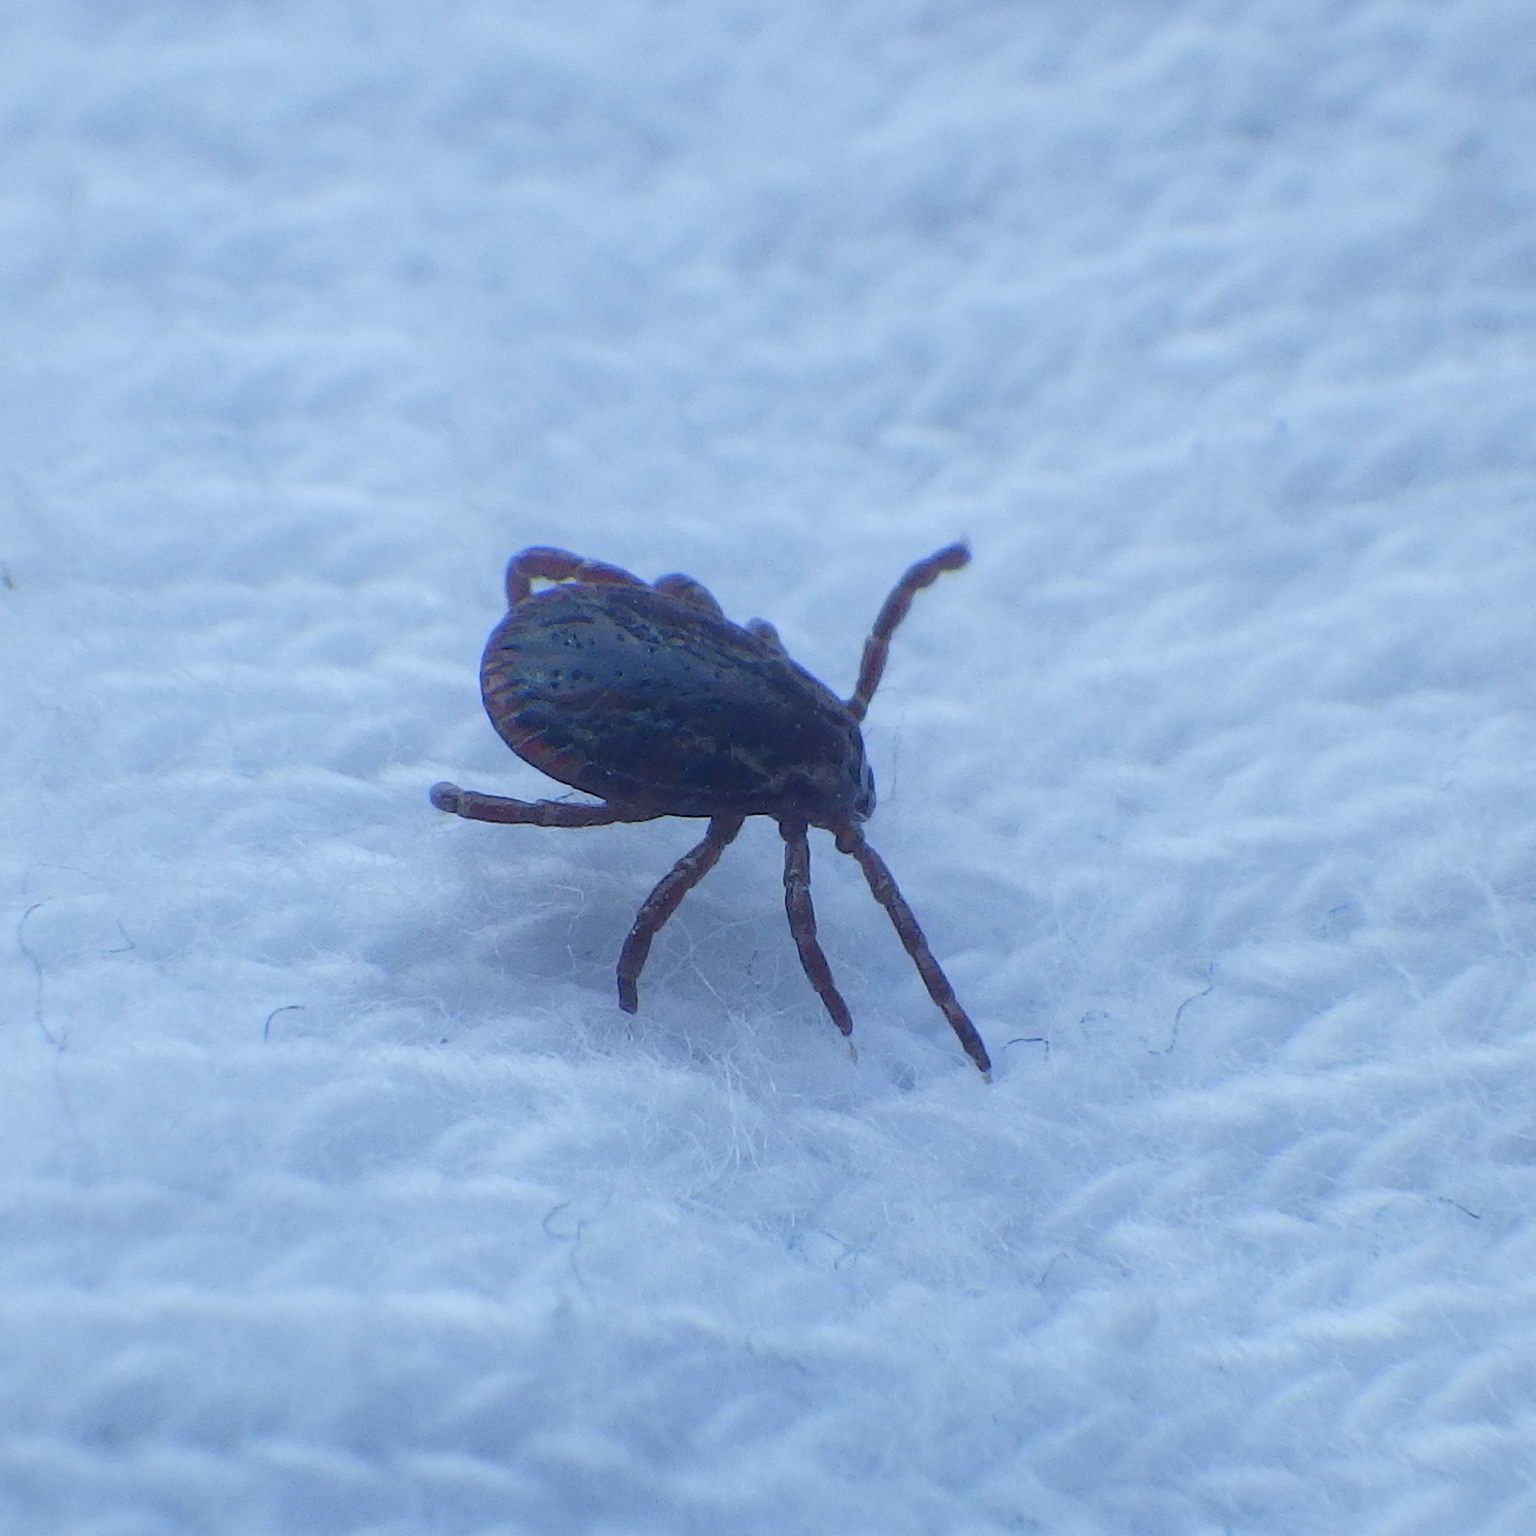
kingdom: Animalia
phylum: Arthropoda
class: Arachnida
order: Ixodida
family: Ixodidae
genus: Dermacentor
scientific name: Dermacentor variabilis
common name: American dog tick
